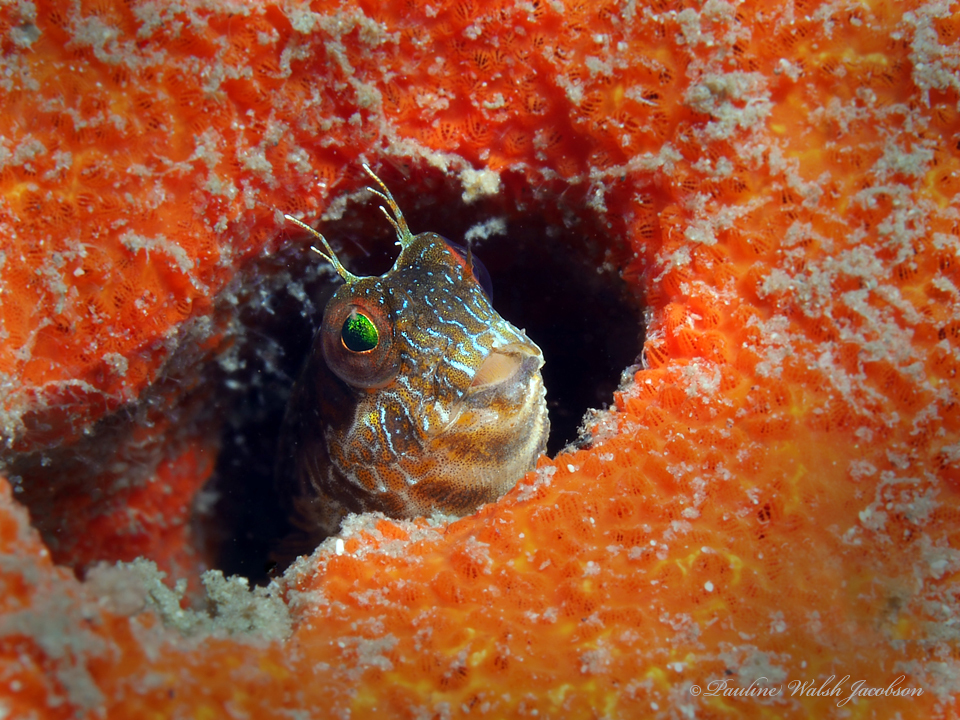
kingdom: Animalia
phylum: Chordata
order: Perciformes
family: Blenniidae
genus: Parablennius
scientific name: Parablennius marmoreus
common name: Seaweed blenny
